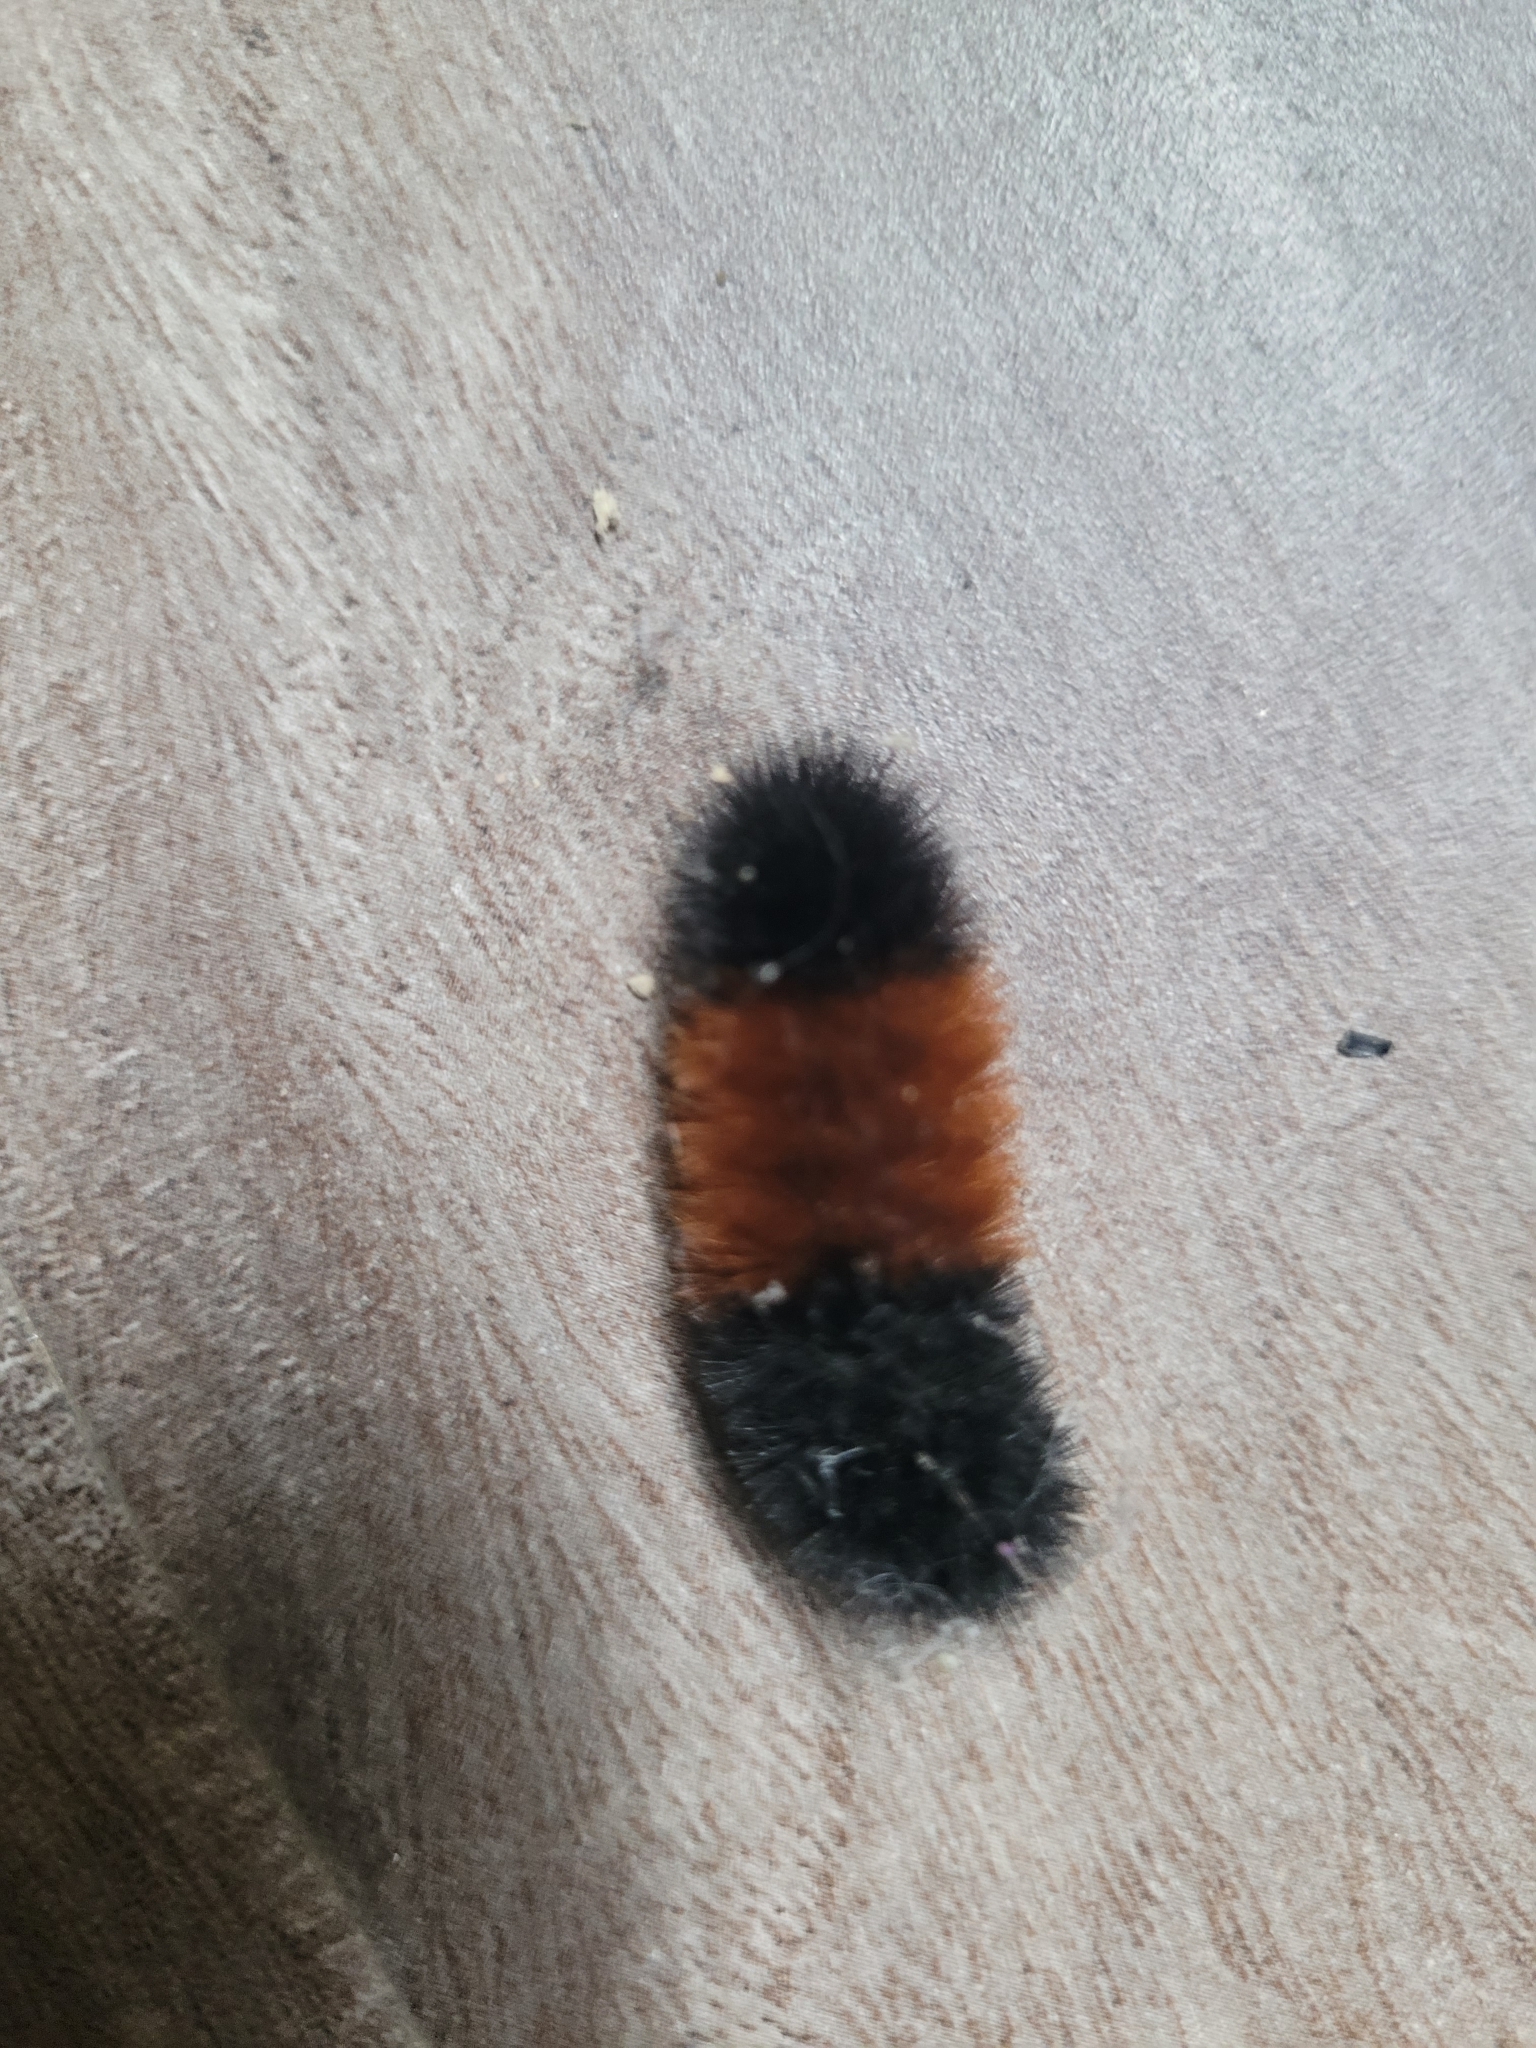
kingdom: Animalia
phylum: Arthropoda
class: Insecta
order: Lepidoptera
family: Erebidae
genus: Pyrrharctia
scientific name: Pyrrharctia isabella
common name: Isabella tiger moth
